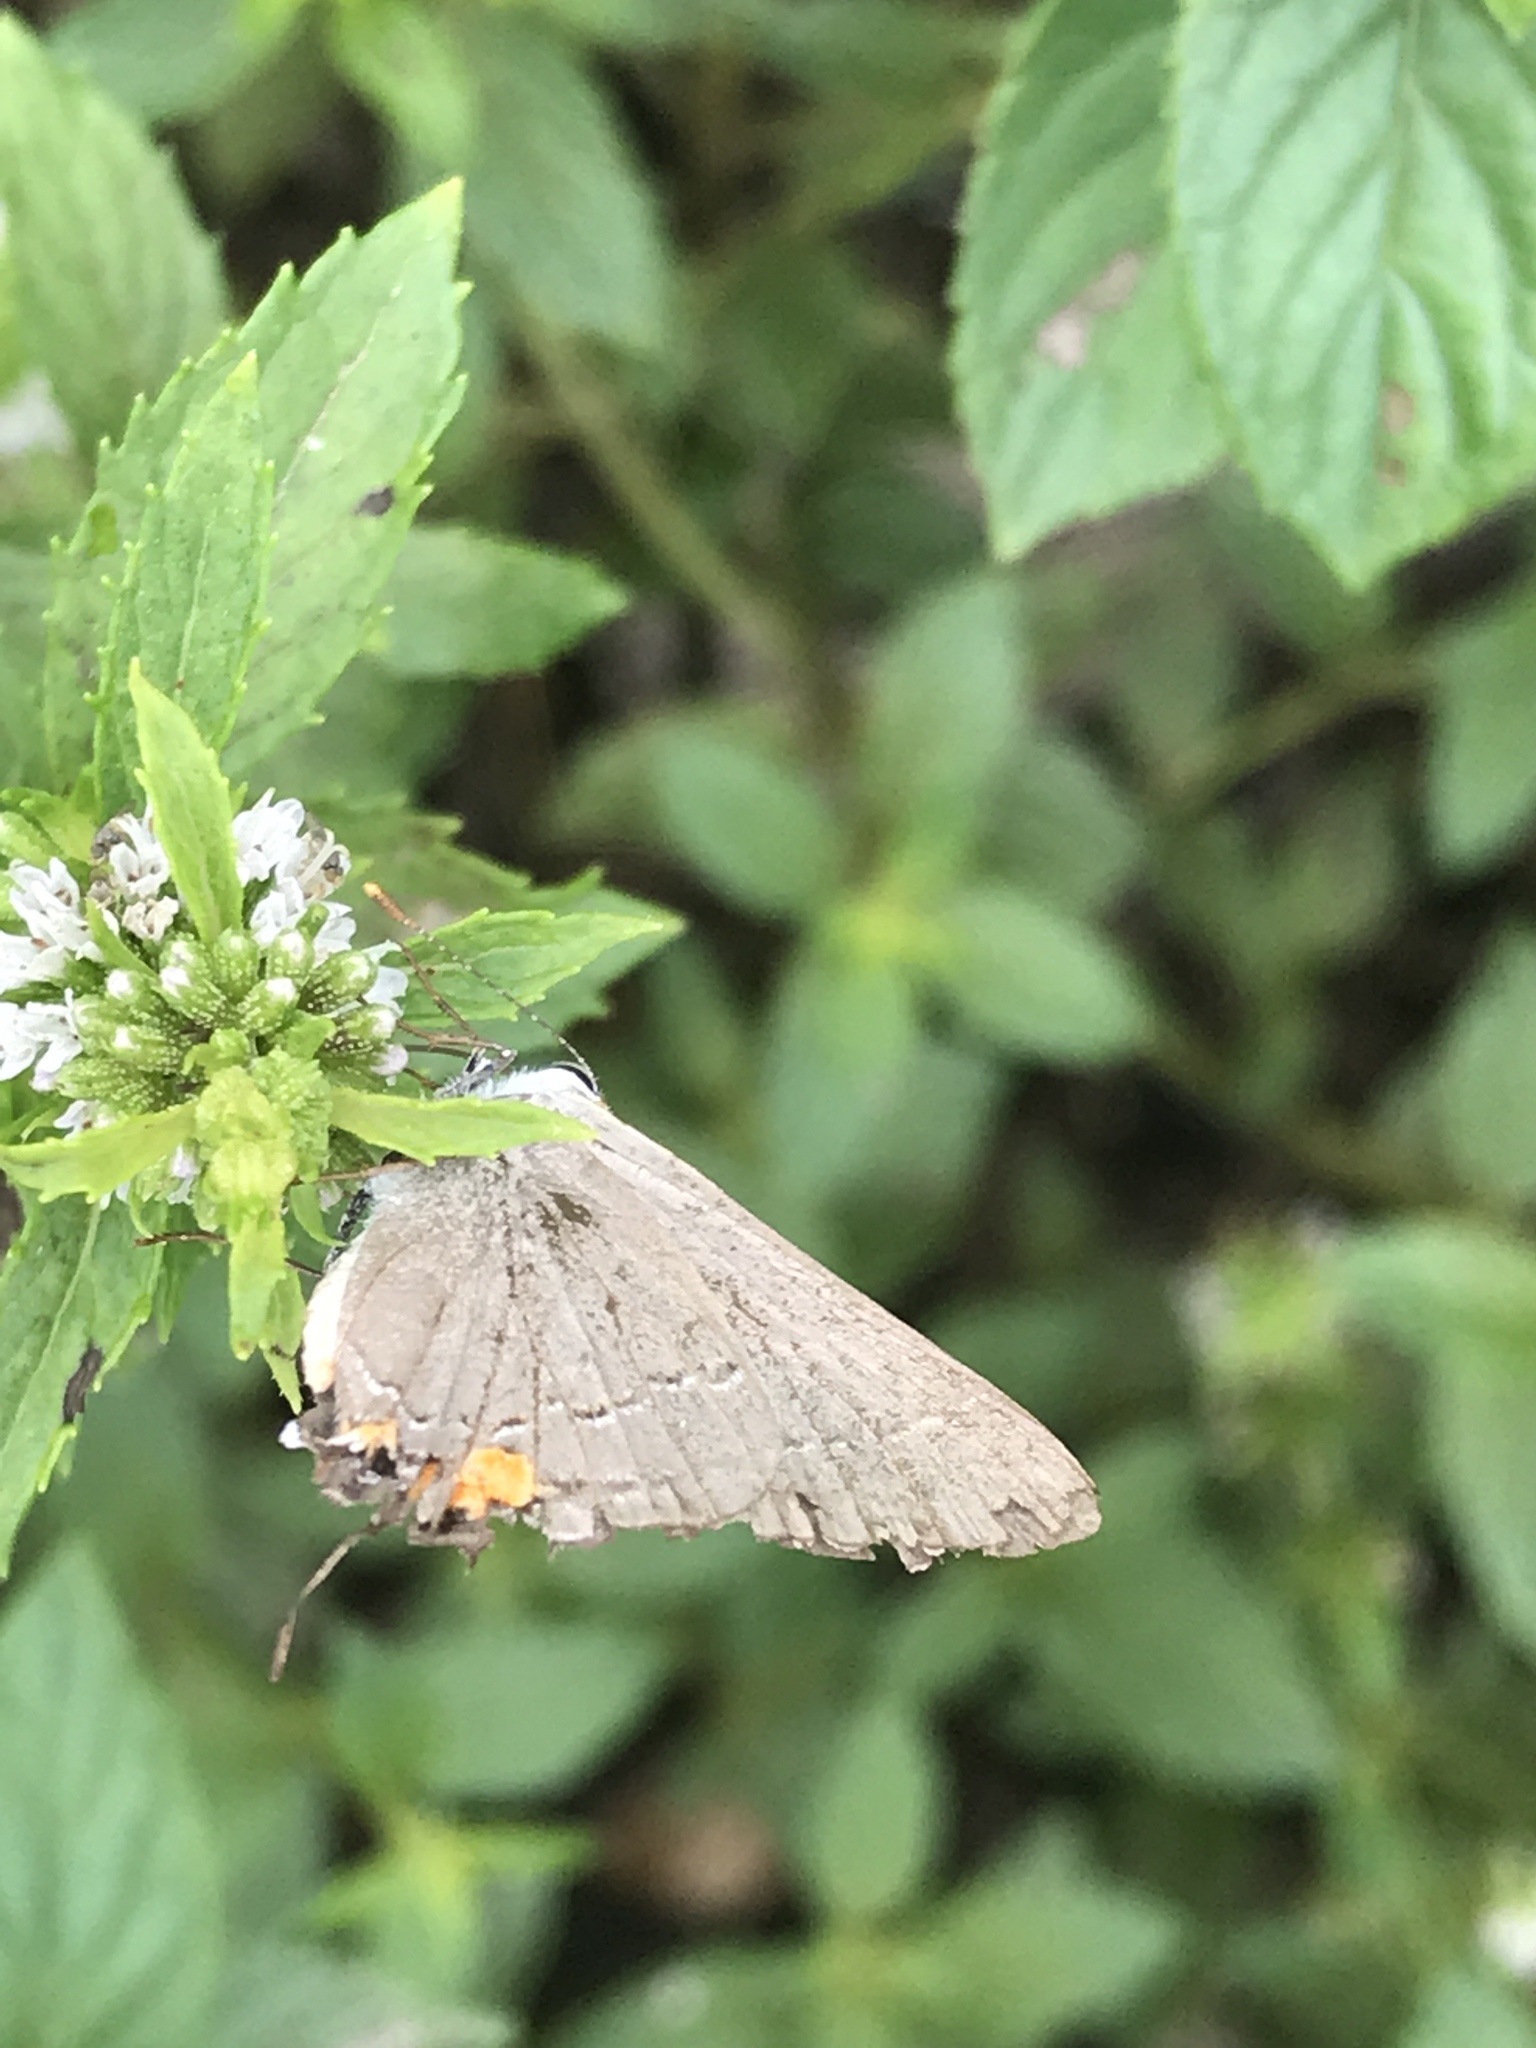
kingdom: Animalia
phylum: Arthropoda
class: Insecta
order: Lepidoptera
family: Lycaenidae
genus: Strymon
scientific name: Strymon melinus
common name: Gray hairstreak
